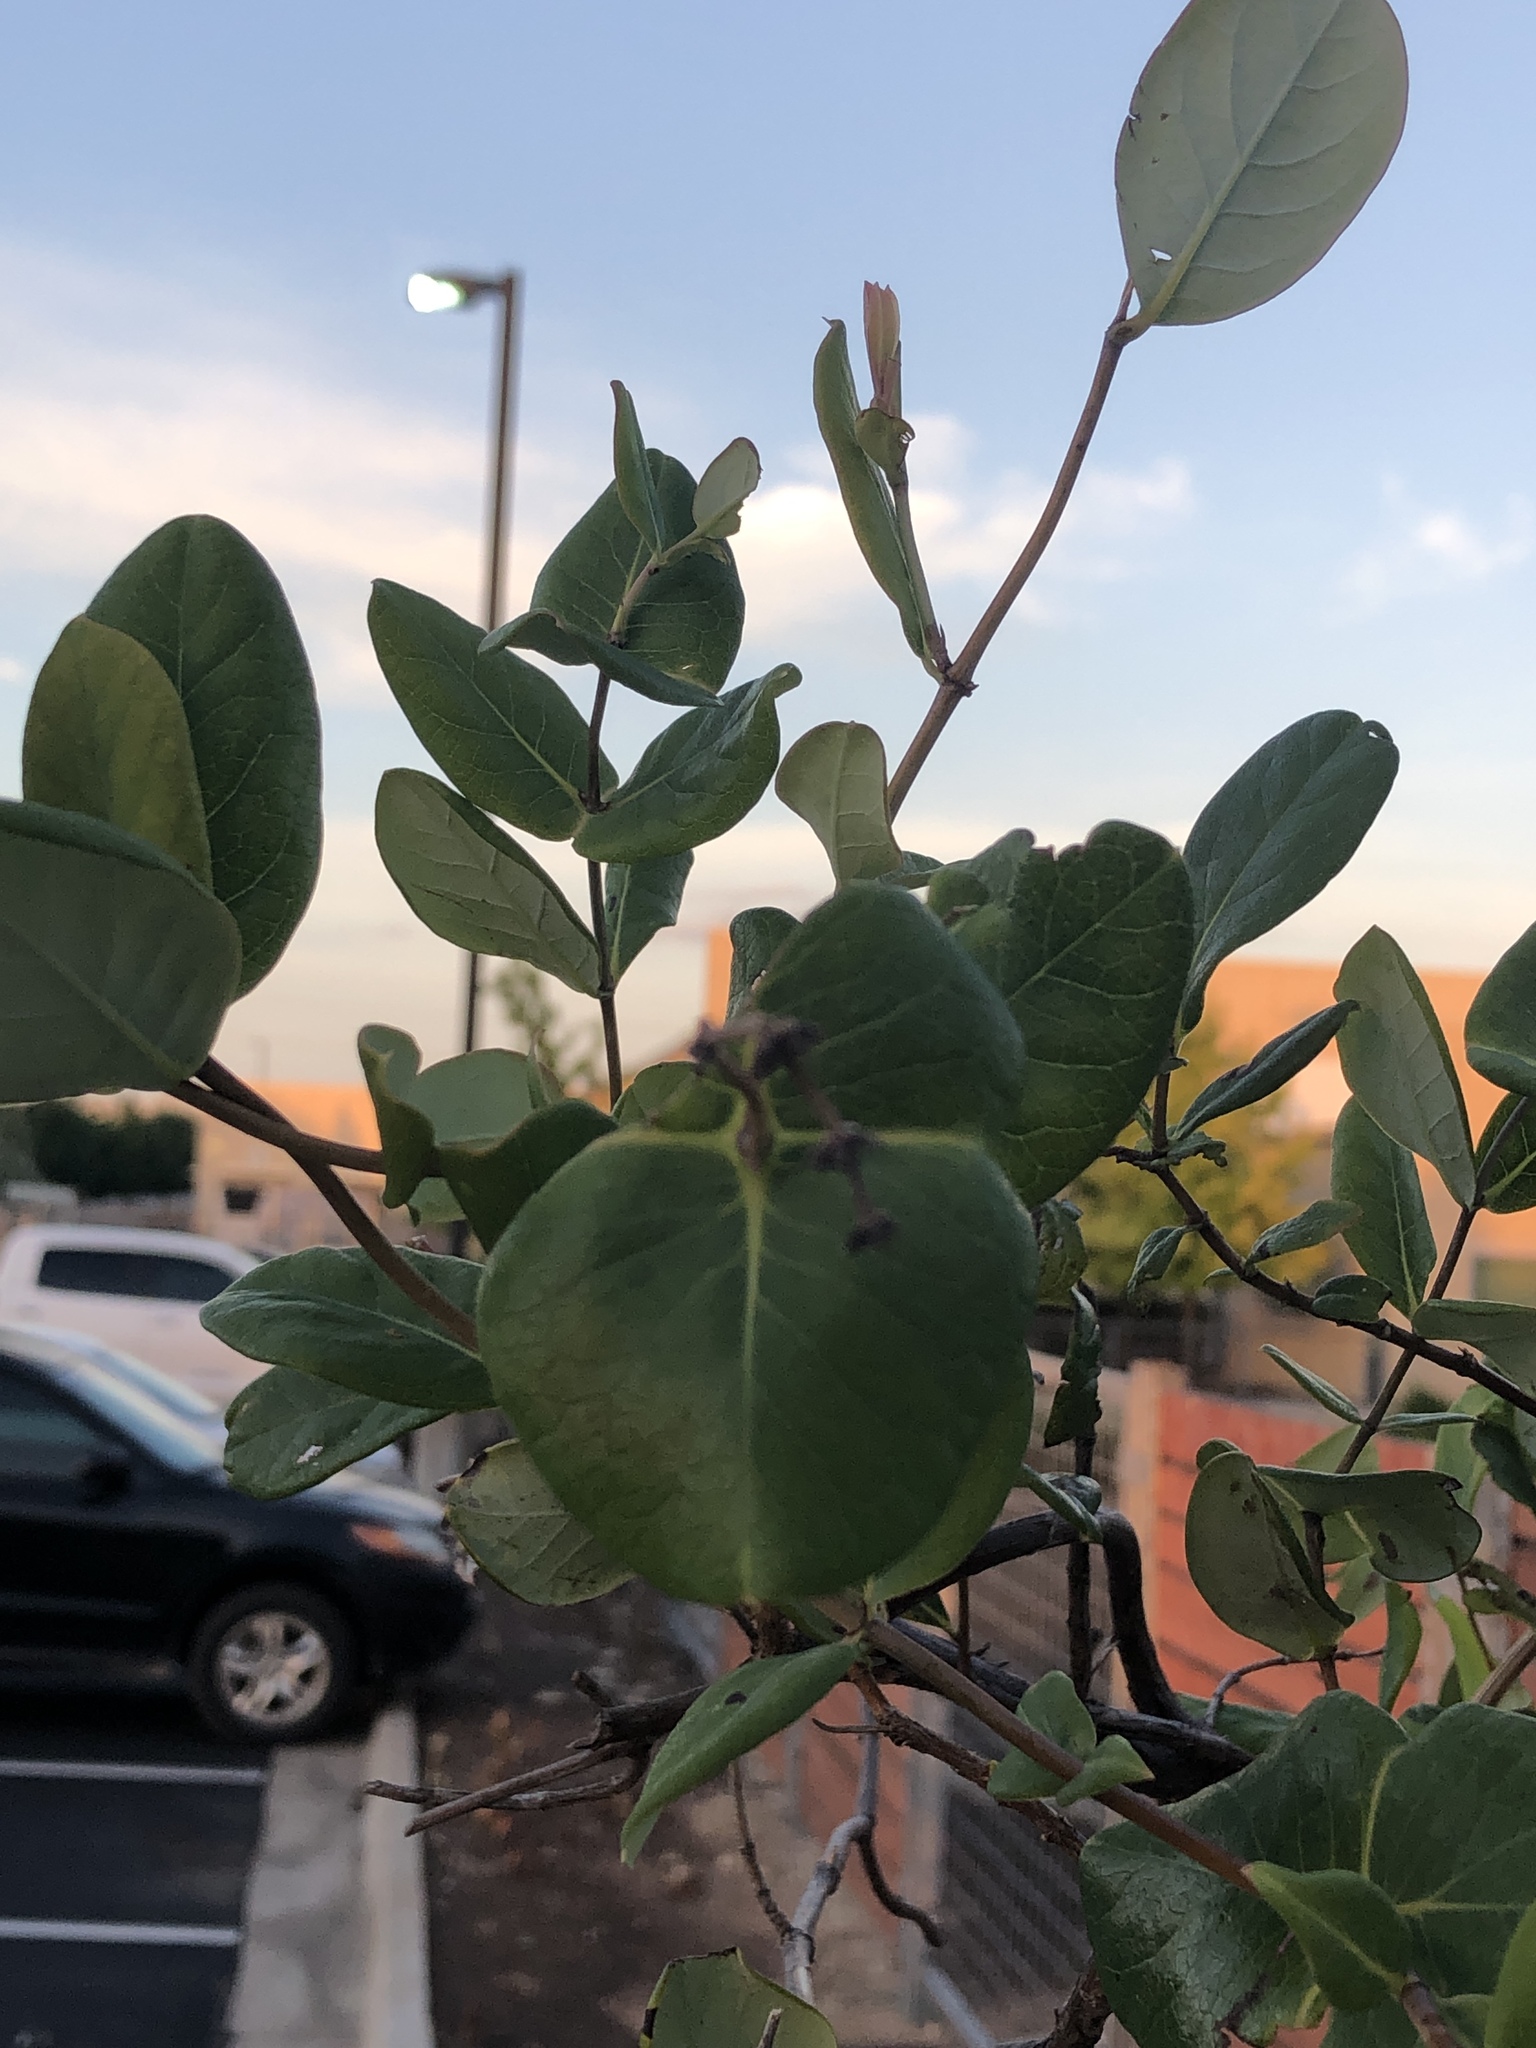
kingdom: Plantae
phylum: Tracheophyta
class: Magnoliopsida
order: Dipsacales
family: Caprifoliaceae
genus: Lonicera
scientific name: Lonicera sempervirens
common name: Coral honeysuckle
